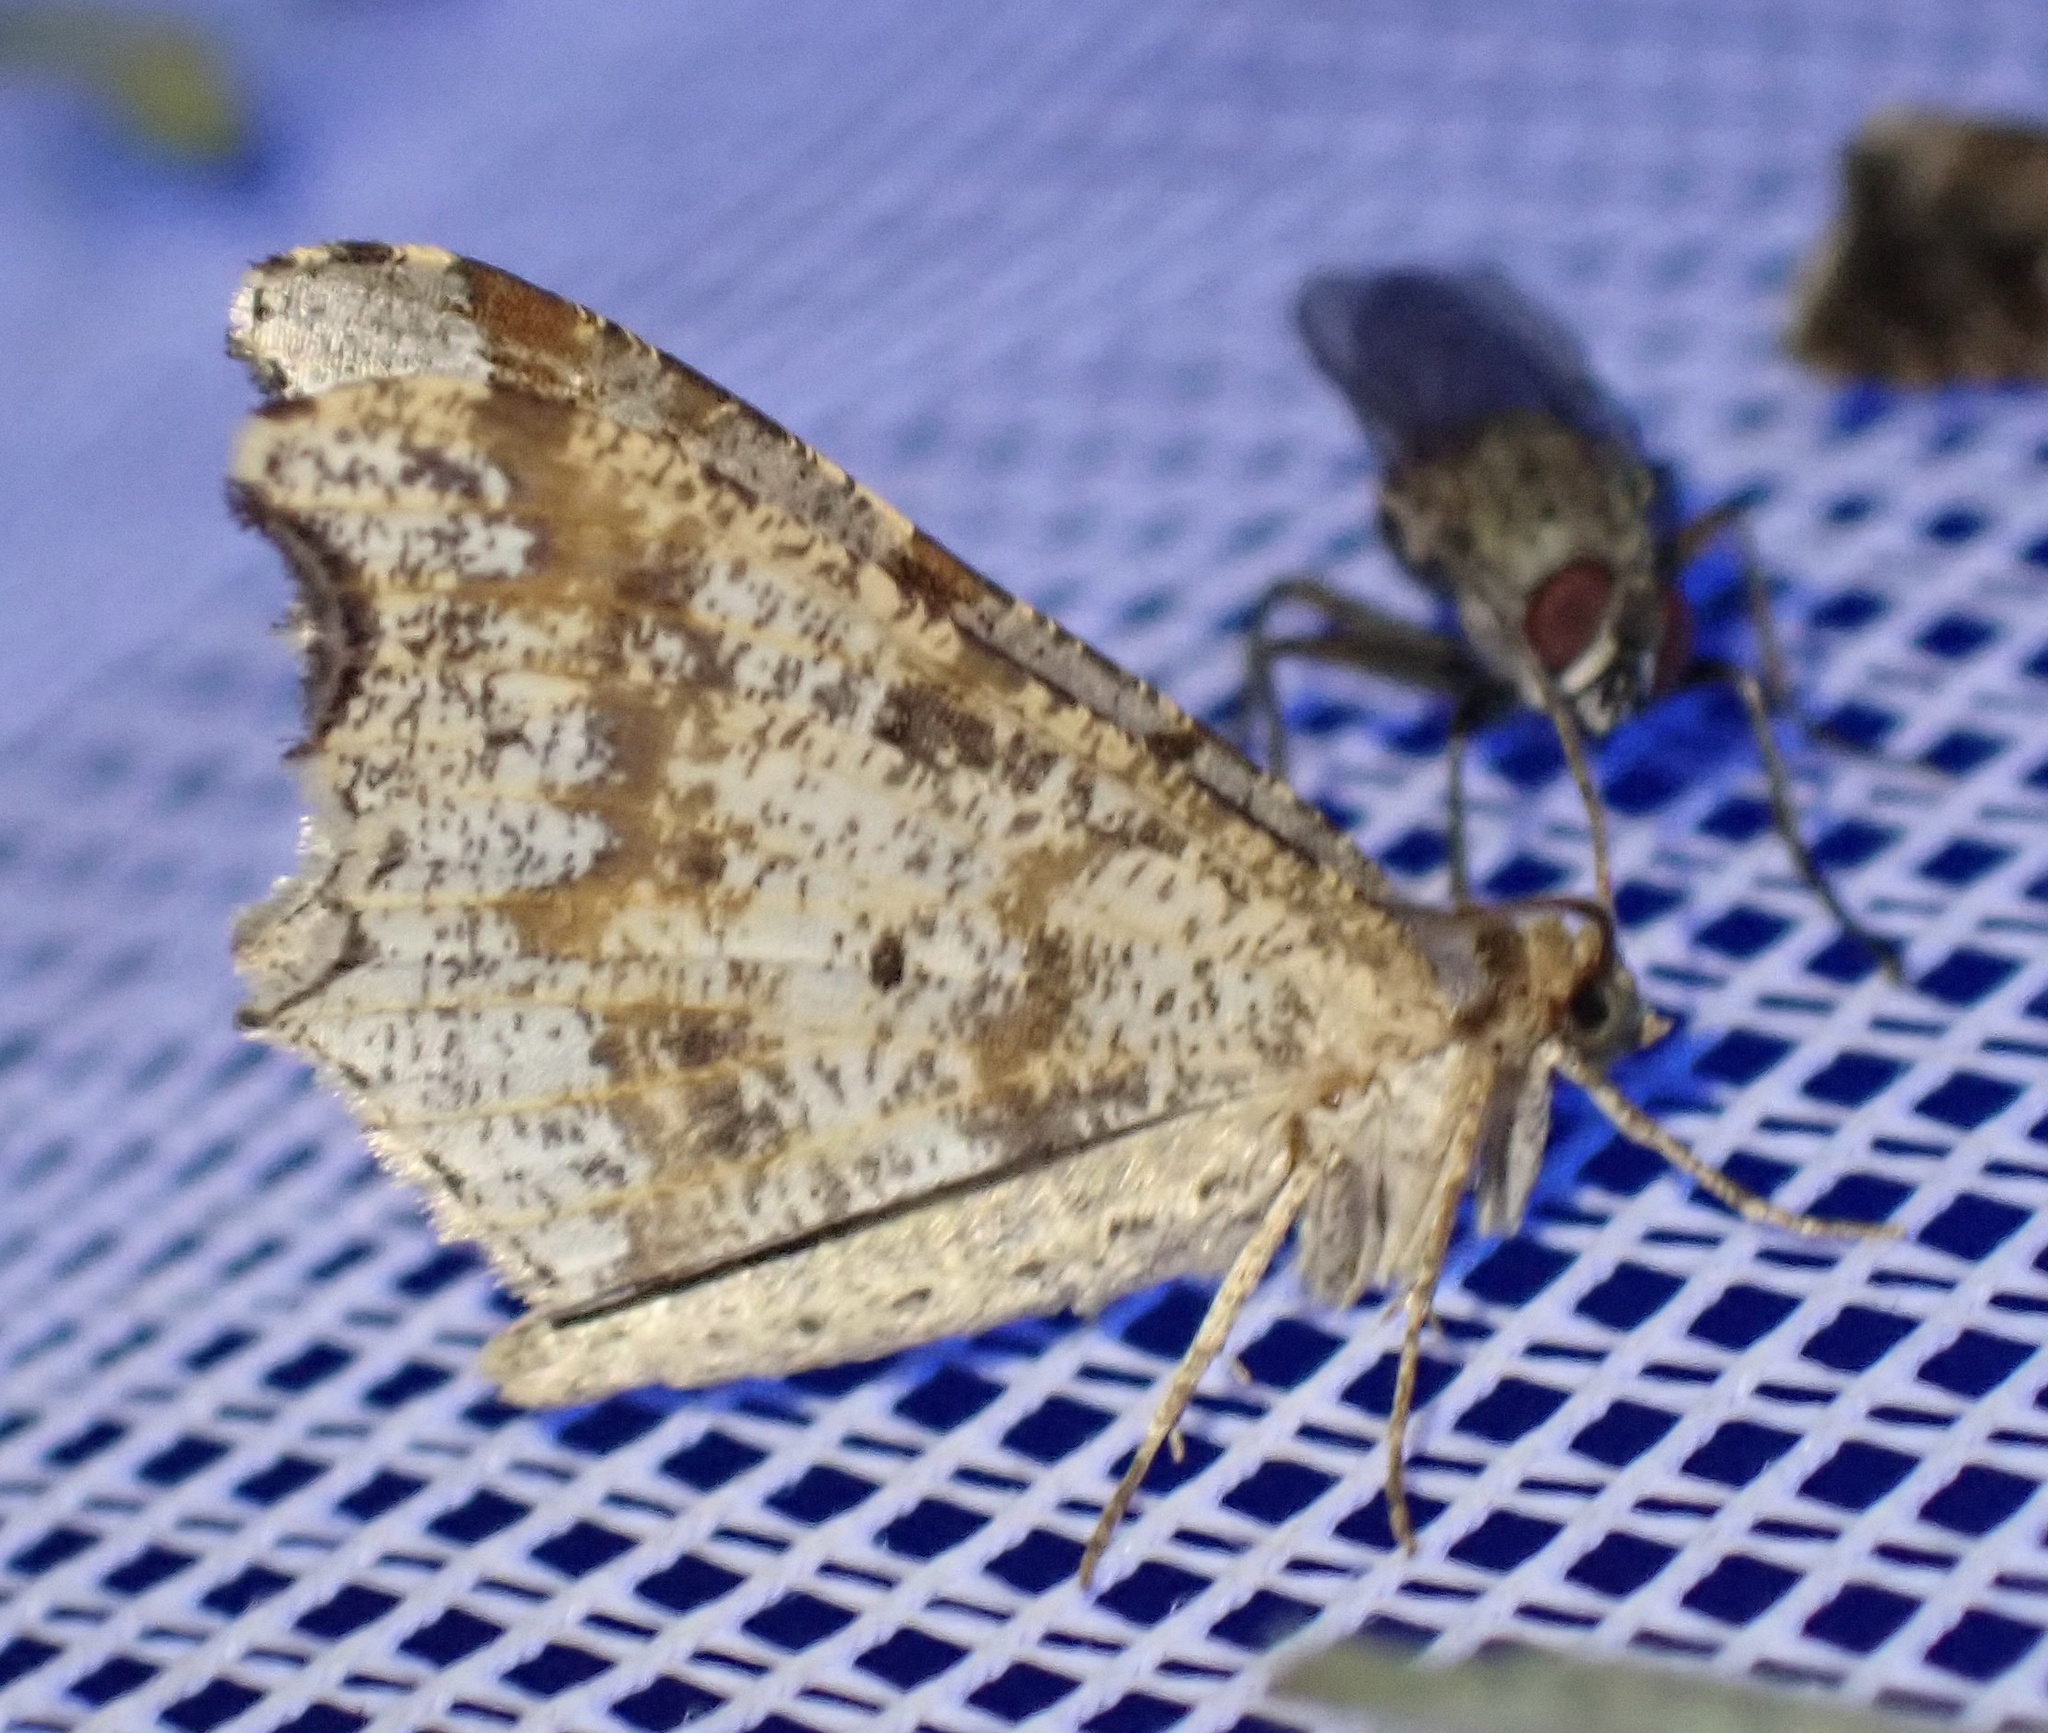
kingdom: Animalia
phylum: Arthropoda
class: Insecta
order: Lepidoptera
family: Geometridae
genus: Macaria
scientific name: Macaria alternata
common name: Sharp-angled peacock
